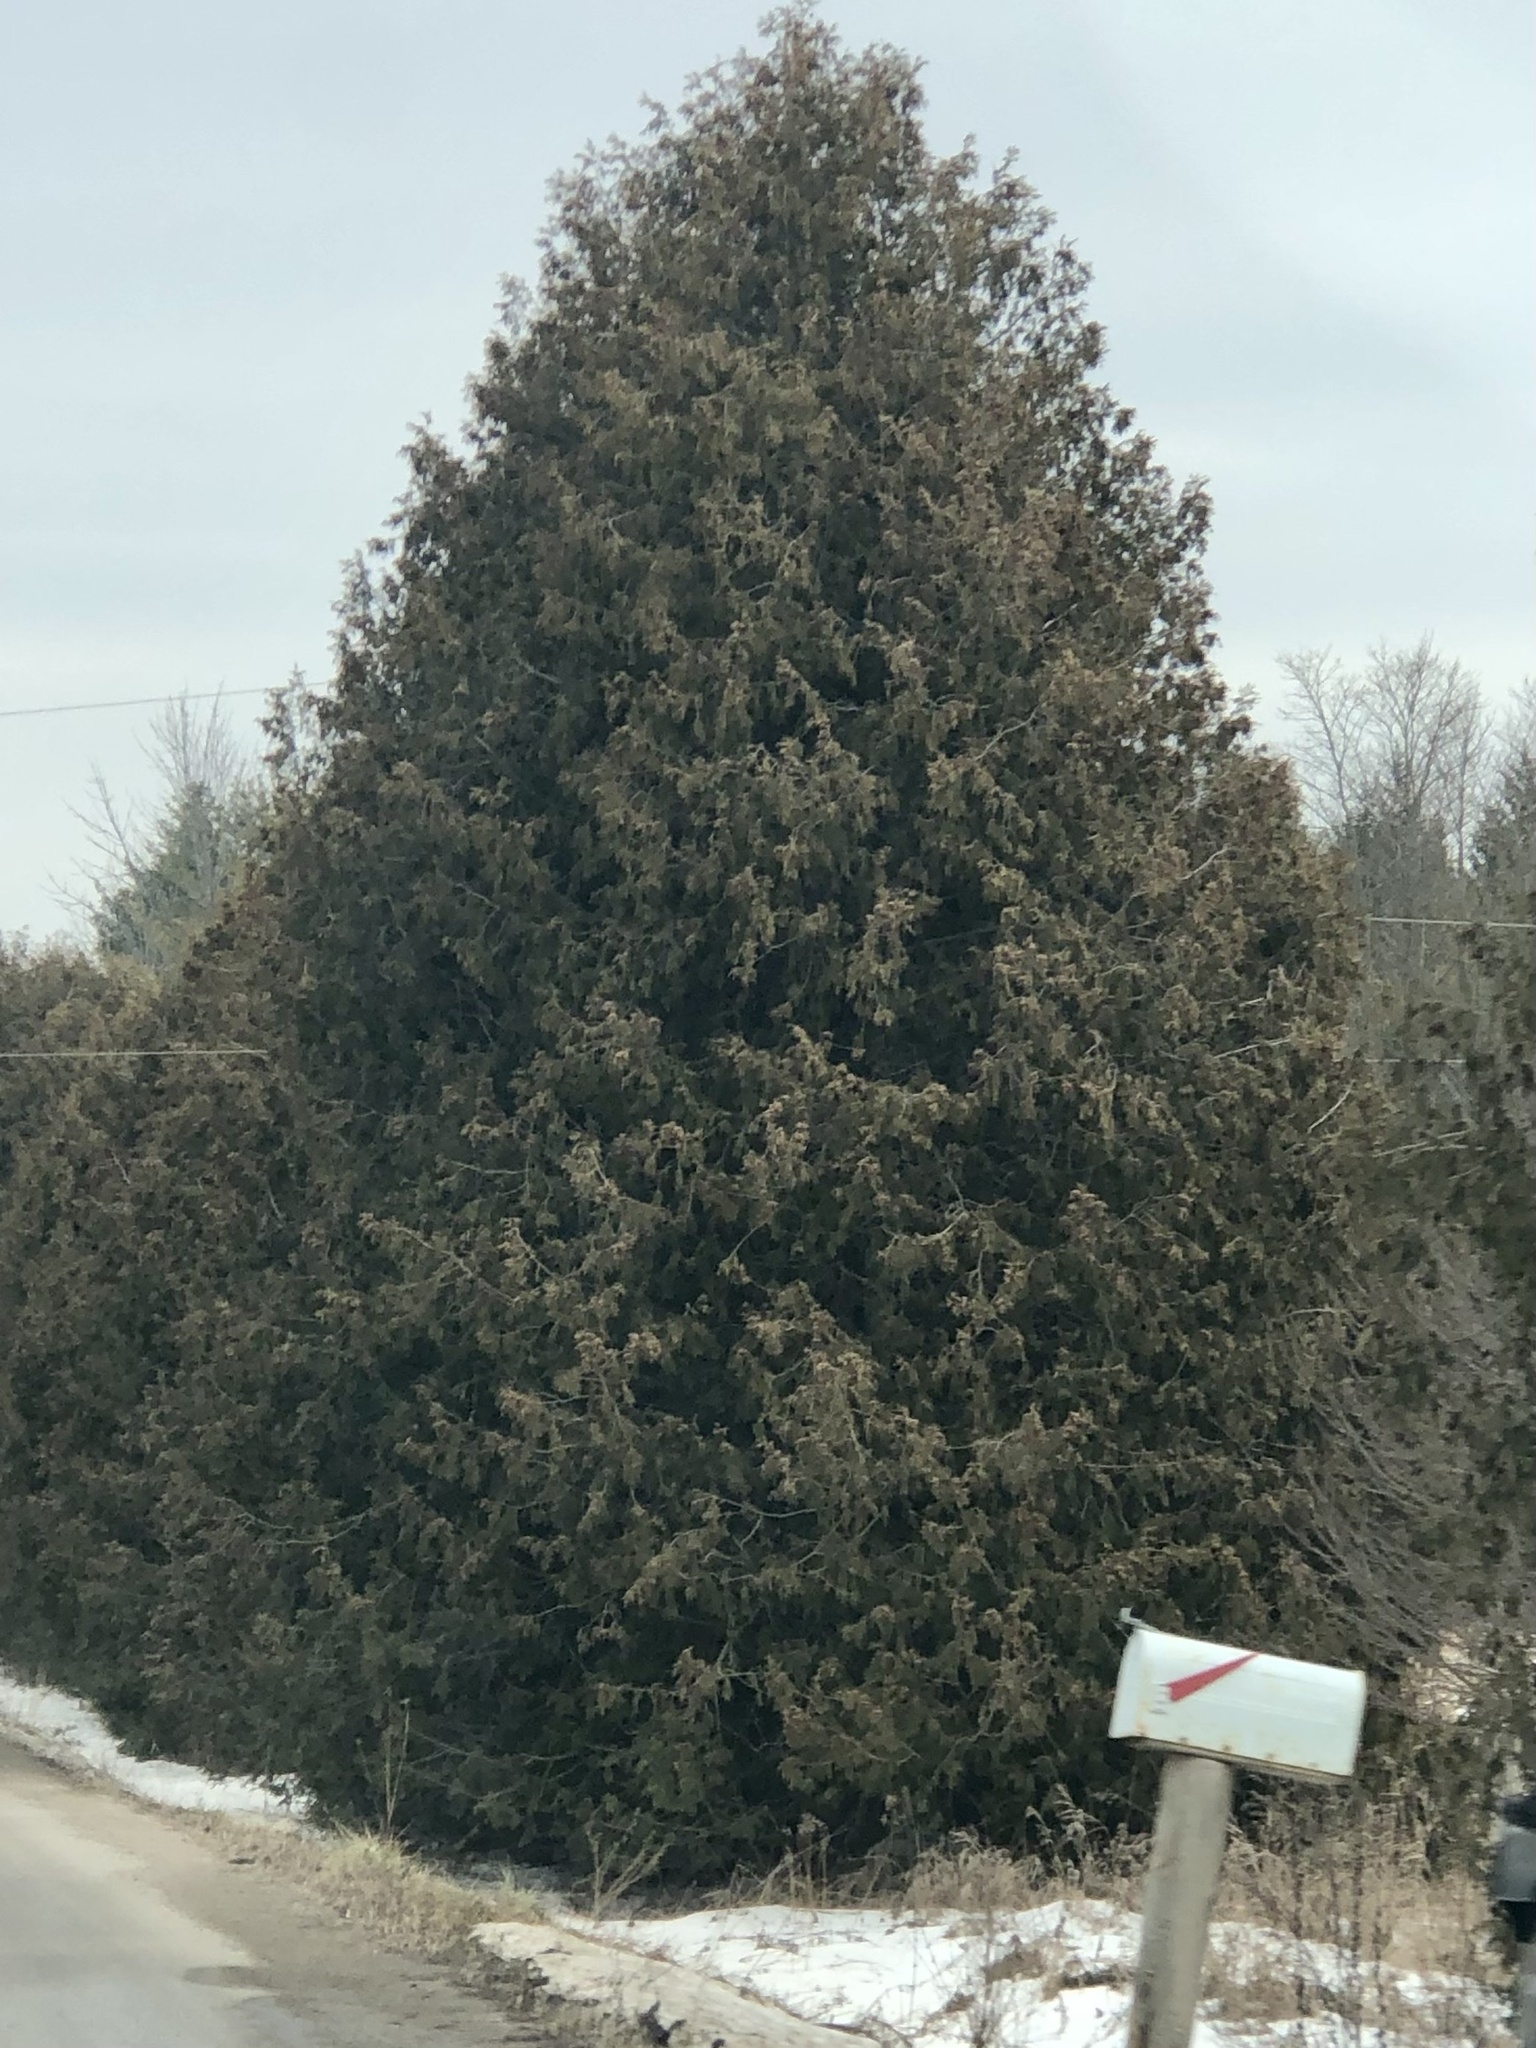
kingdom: Plantae
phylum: Tracheophyta
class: Pinopsida
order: Pinales
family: Cupressaceae
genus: Thuja
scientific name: Thuja occidentalis
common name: Northern white-cedar
